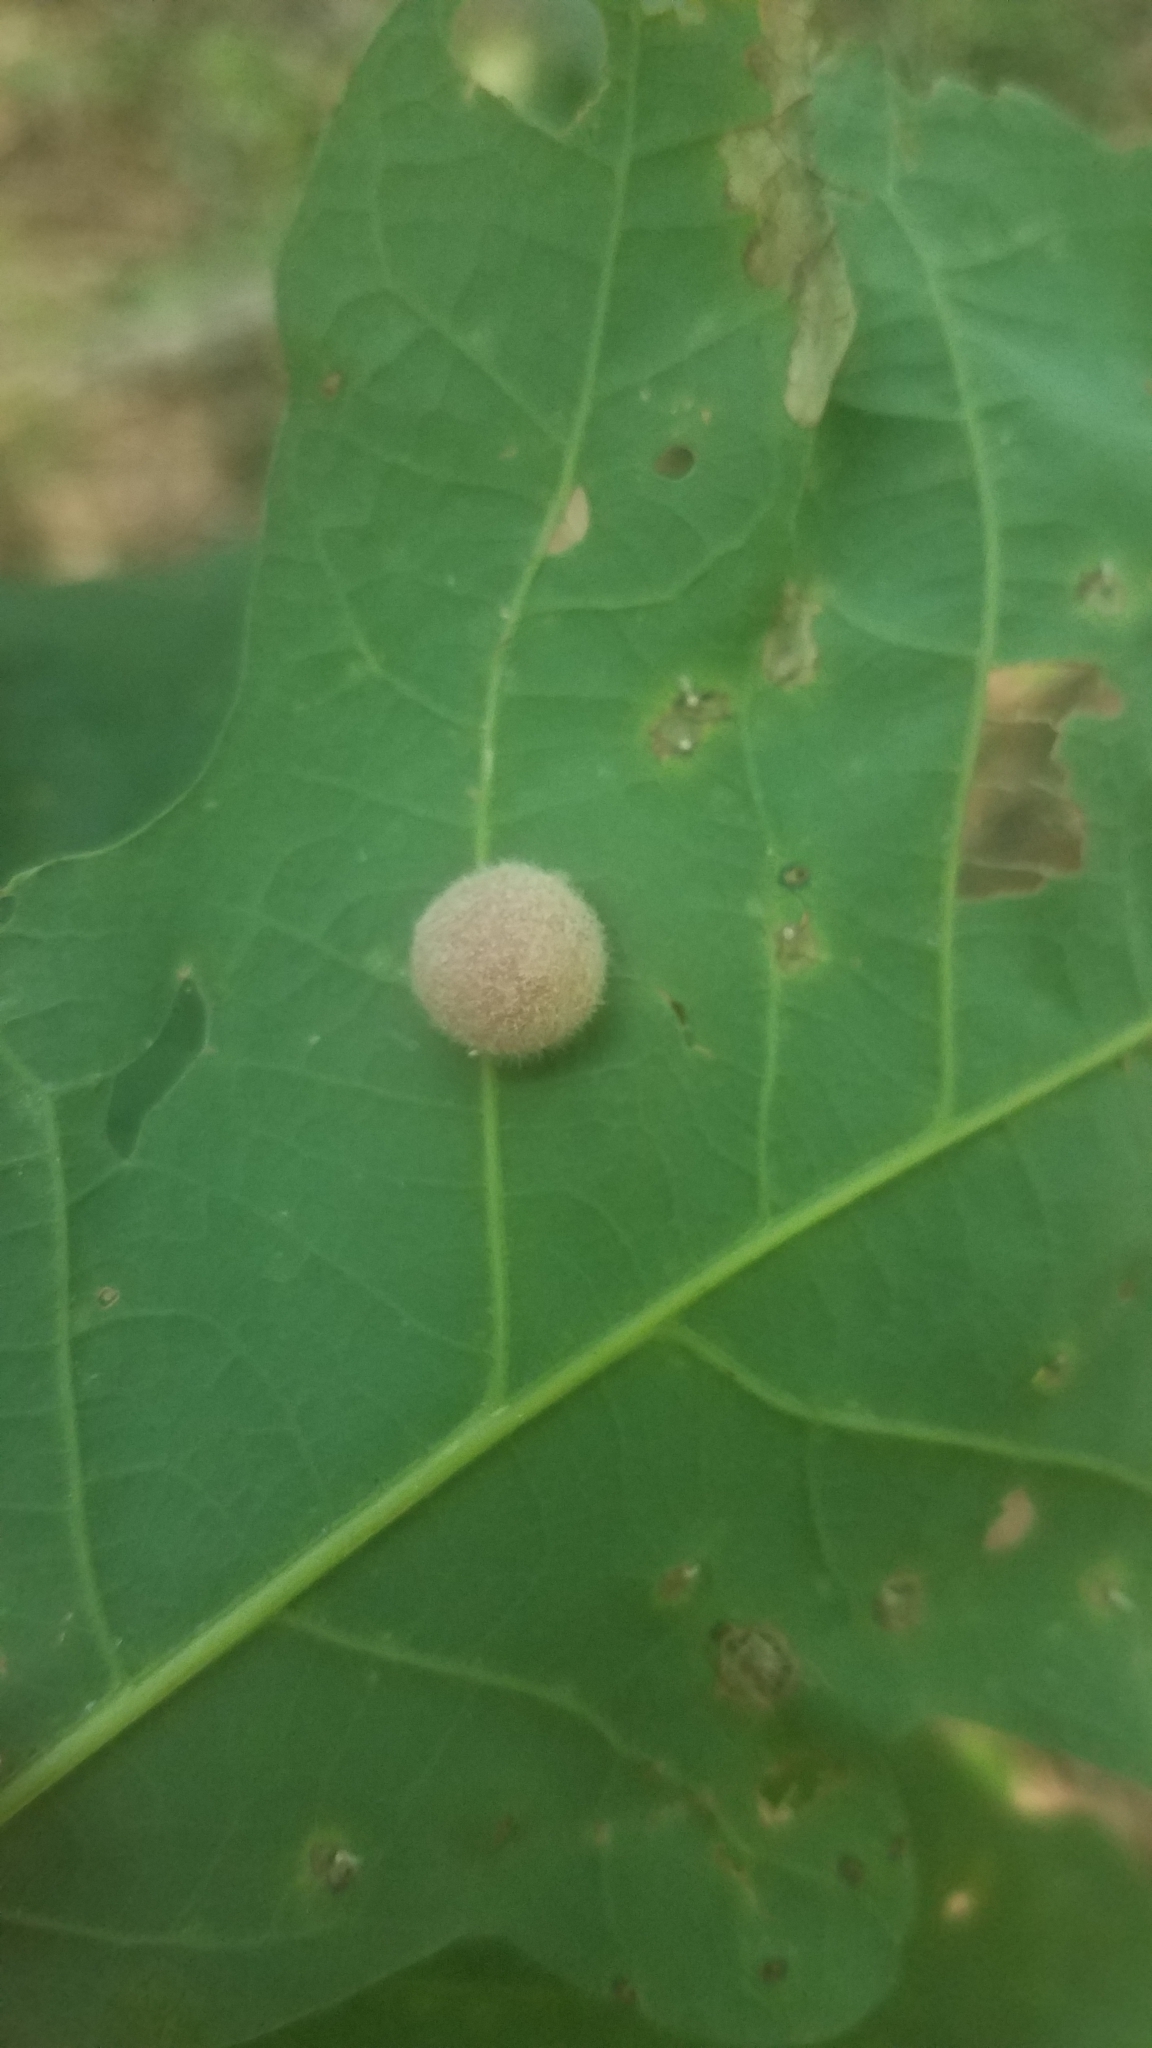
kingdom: Animalia
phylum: Arthropoda
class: Insecta
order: Hymenoptera
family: Cynipidae
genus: Philonix
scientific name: Philonix fulvicollis
